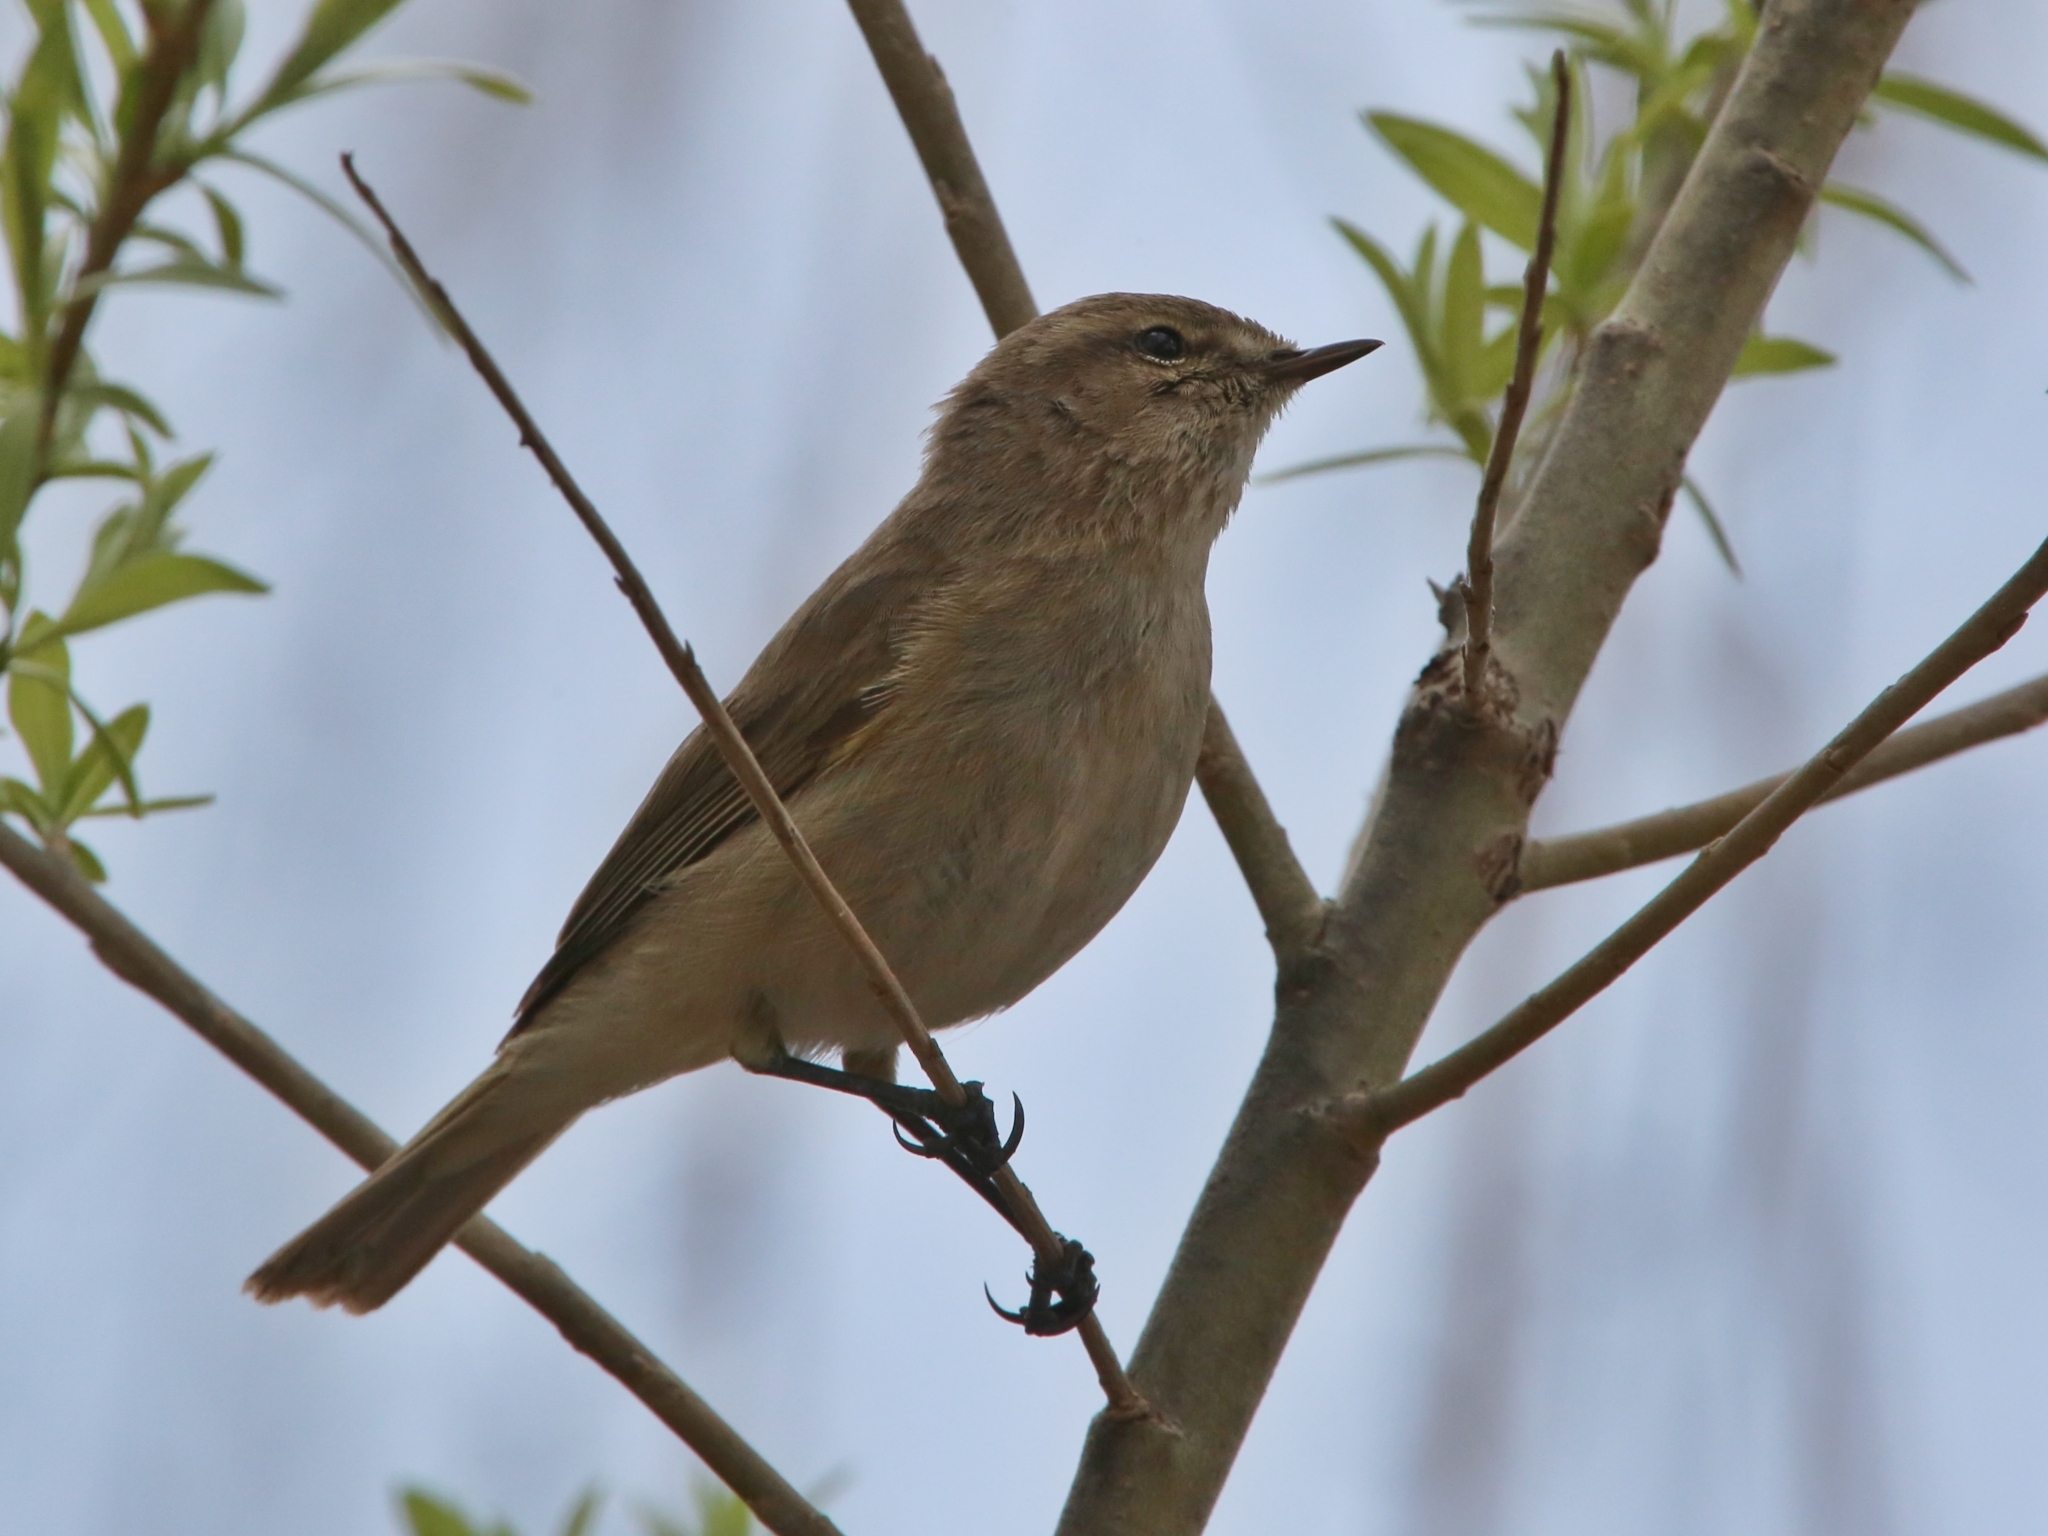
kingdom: Animalia
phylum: Chordata
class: Aves
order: Passeriformes
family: Phylloscopidae
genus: Phylloscopus
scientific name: Phylloscopus collybita
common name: Common chiffchaff
